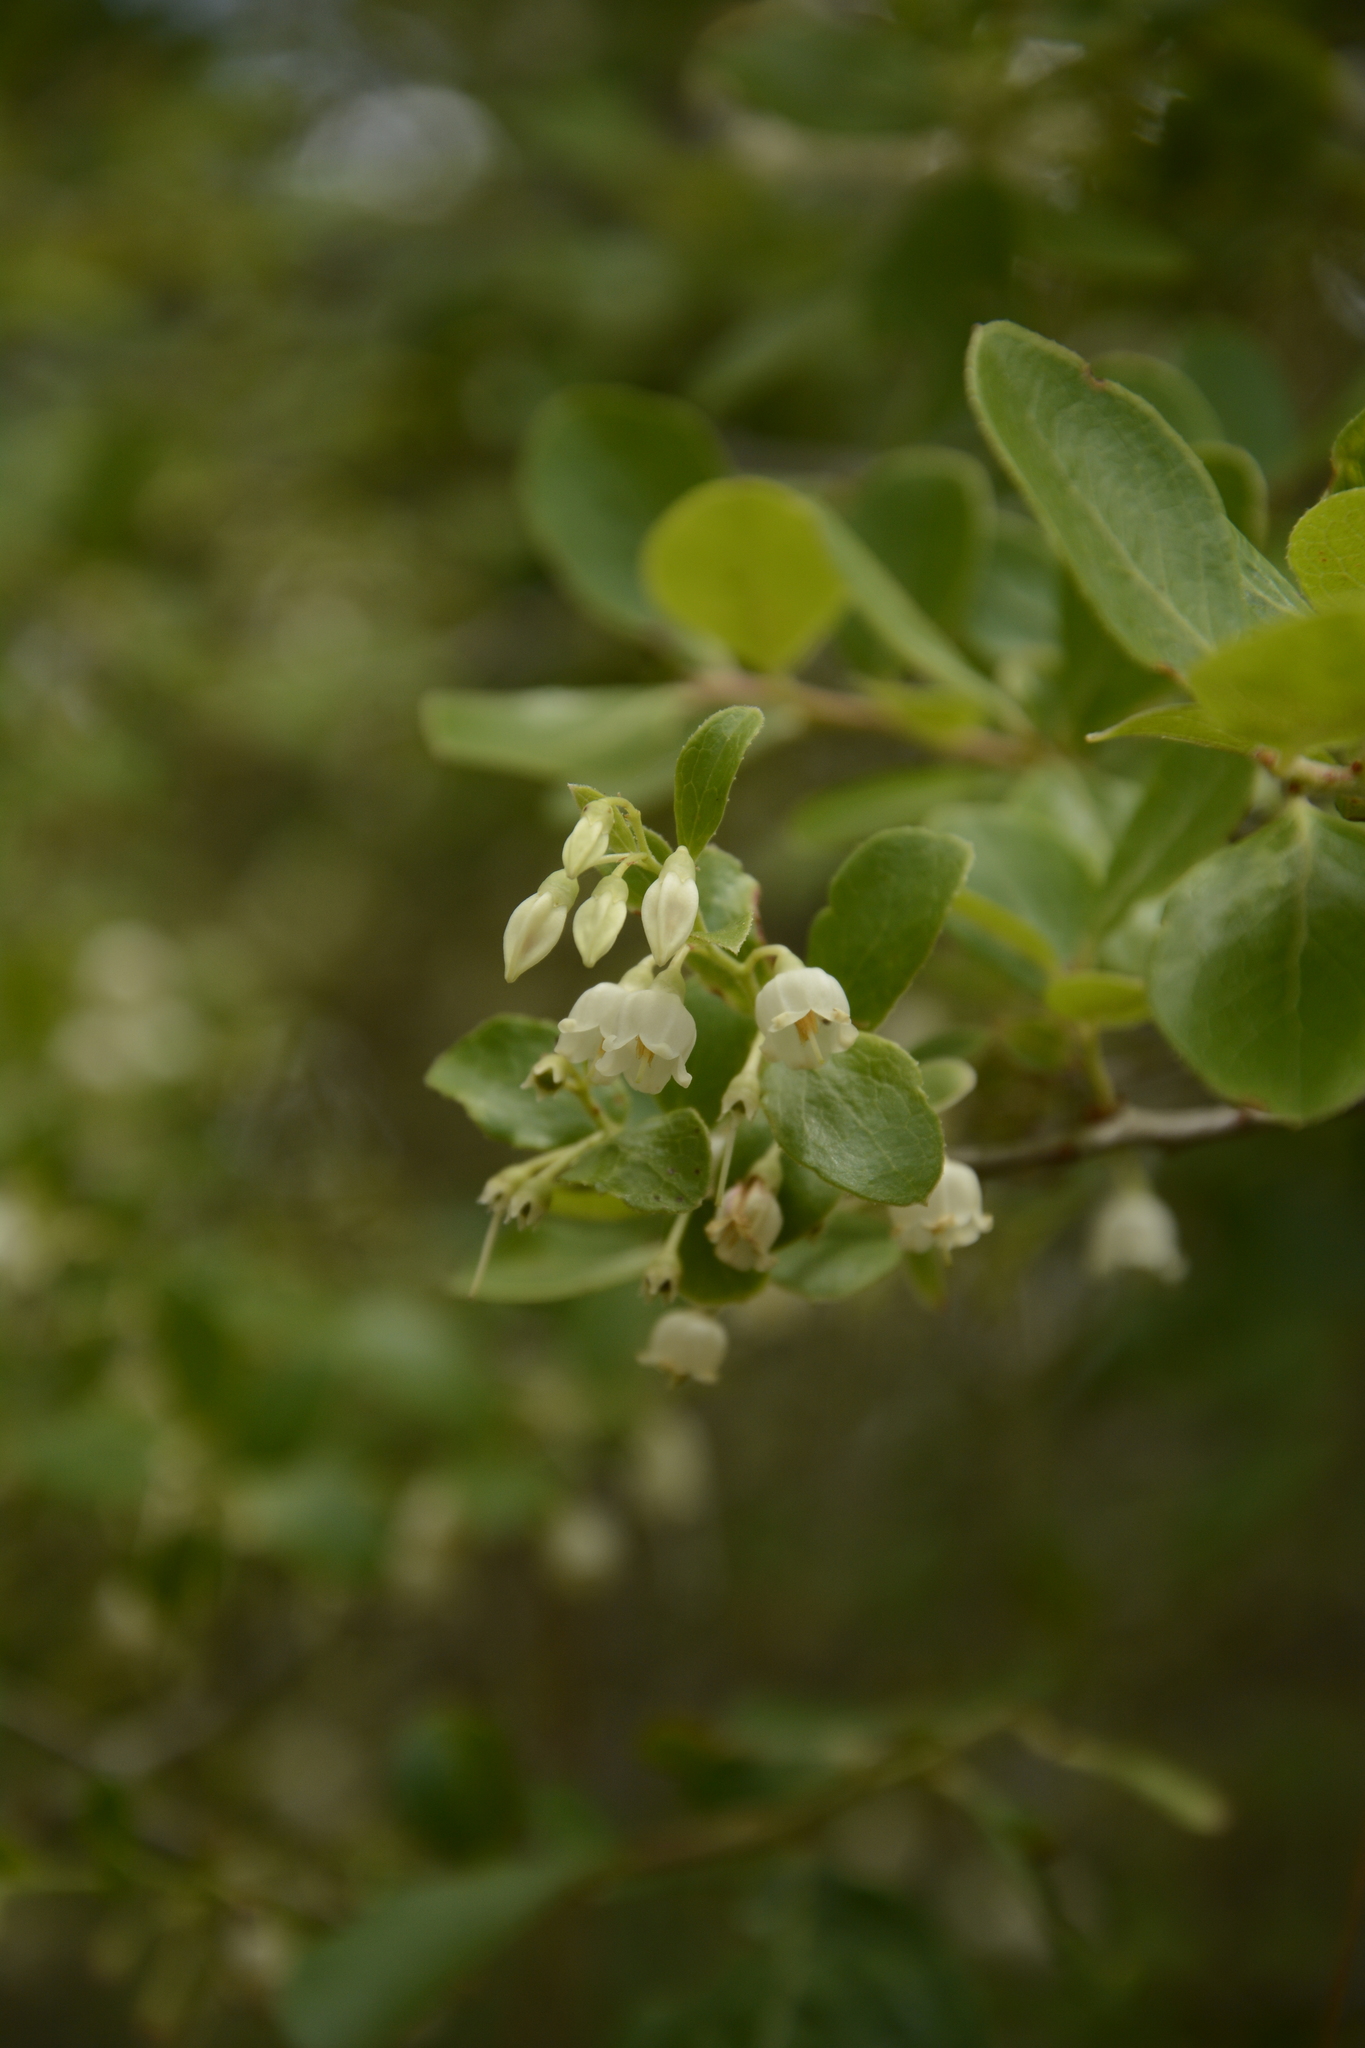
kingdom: Plantae
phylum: Tracheophyta
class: Magnoliopsida
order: Ericales
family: Ericaceae
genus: Vaccinium
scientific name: Vaccinium arboreum
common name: Farkleberry
